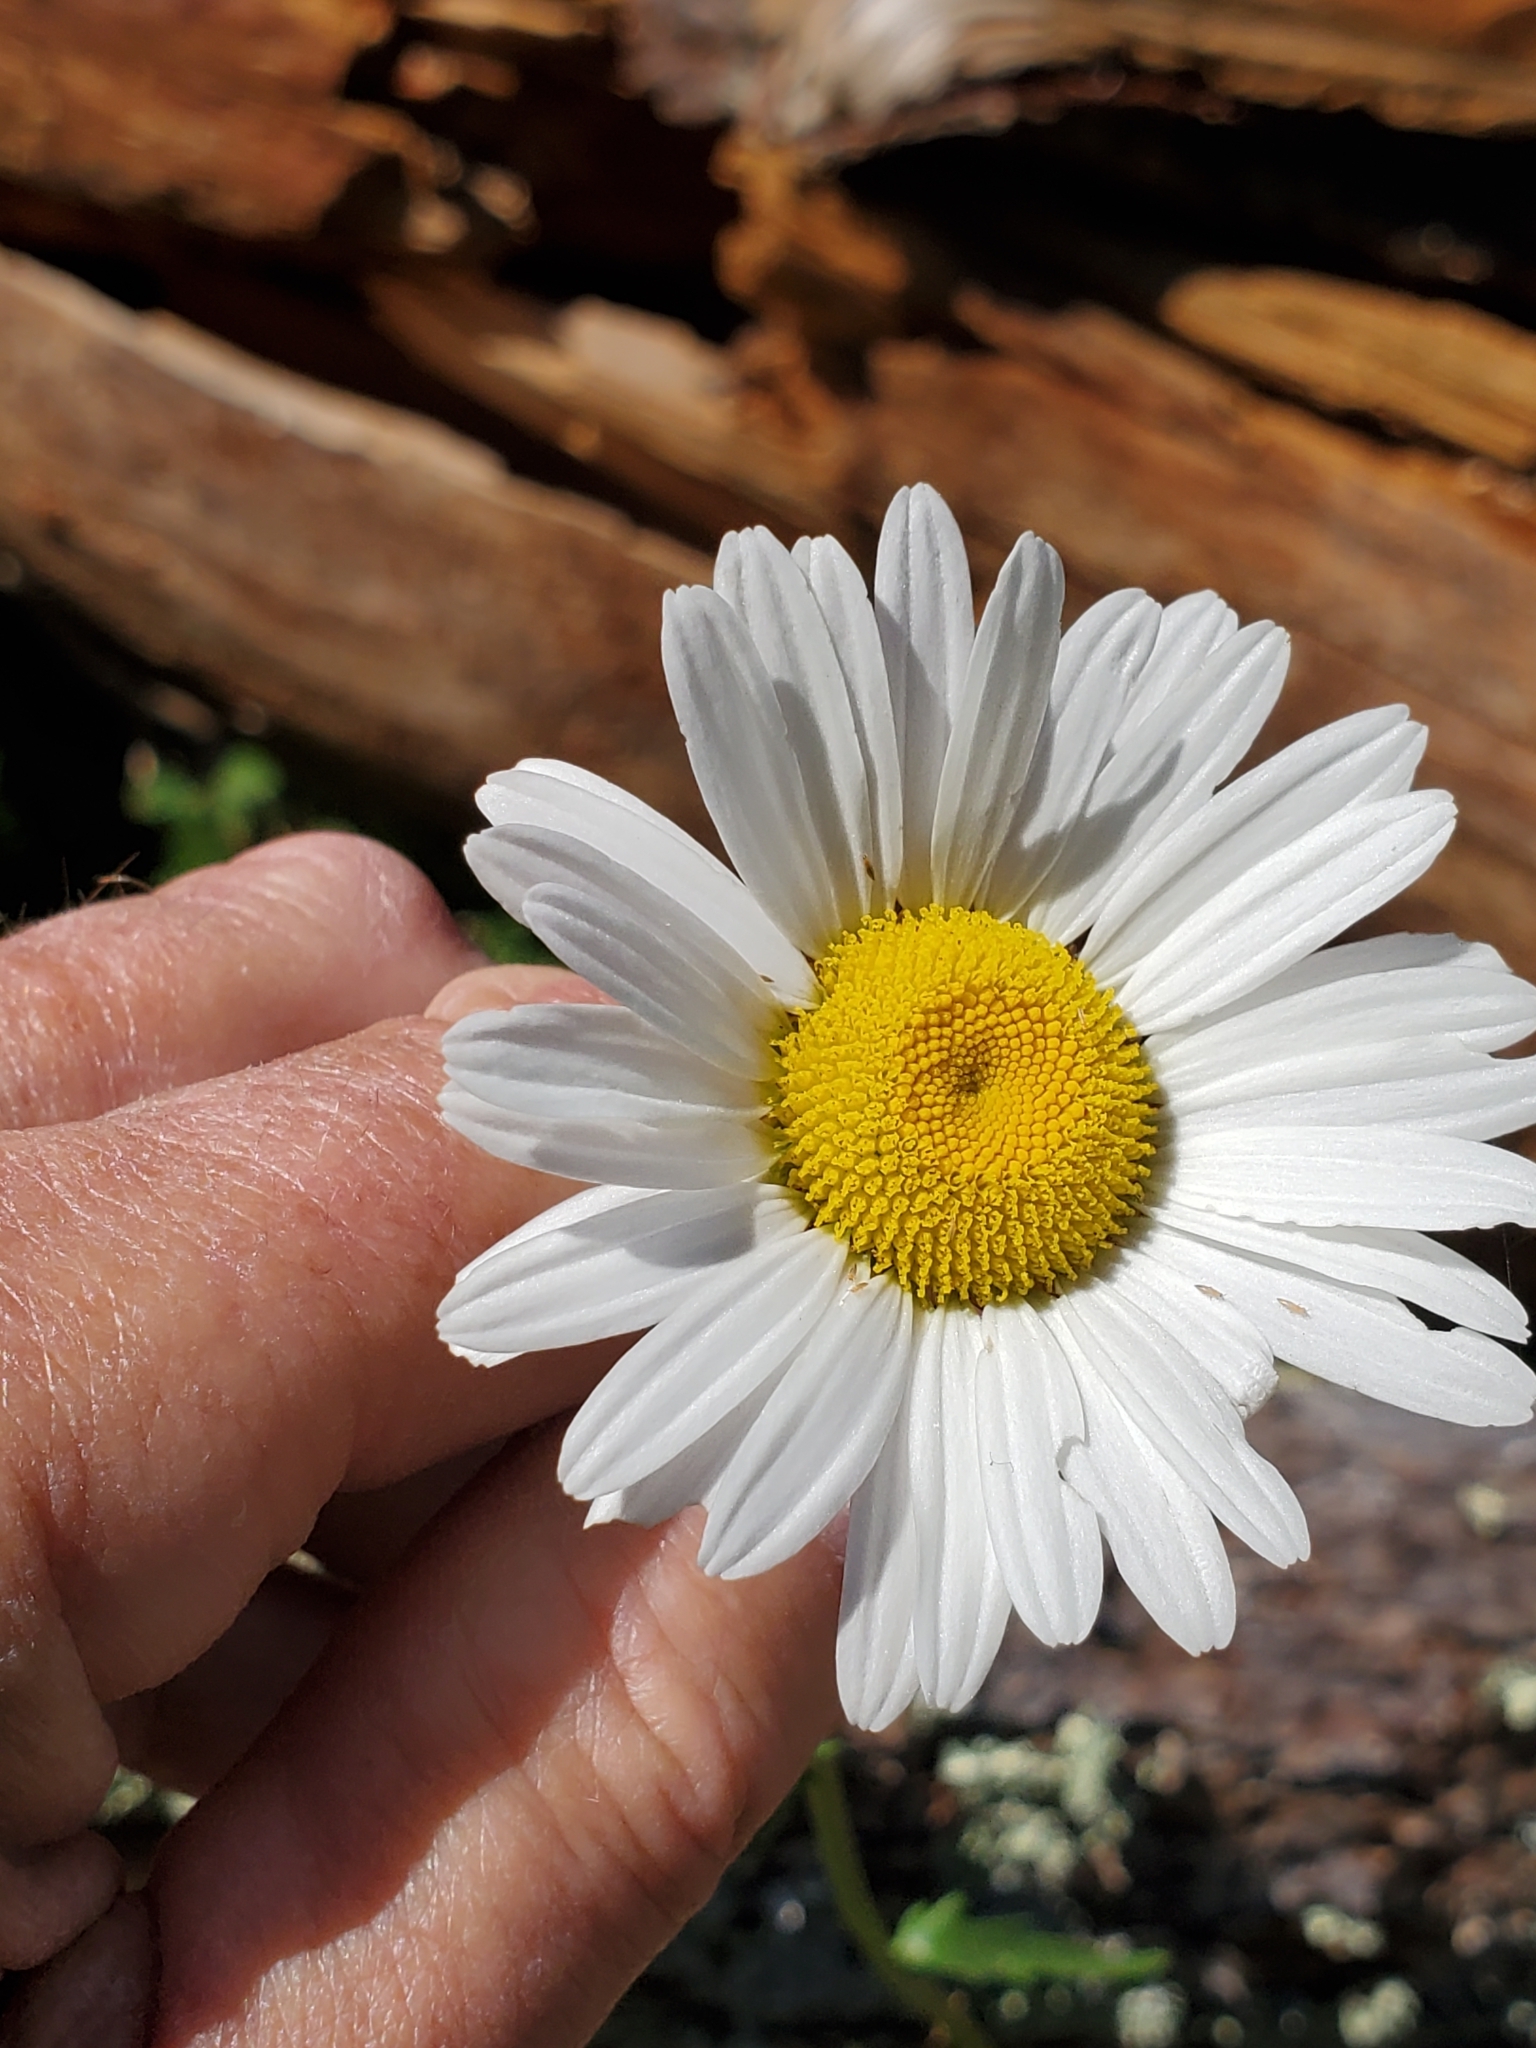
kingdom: Plantae
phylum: Tracheophyta
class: Magnoliopsida
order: Asterales
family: Asteraceae
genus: Leucanthemum
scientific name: Leucanthemum vulgare
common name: Oxeye daisy
